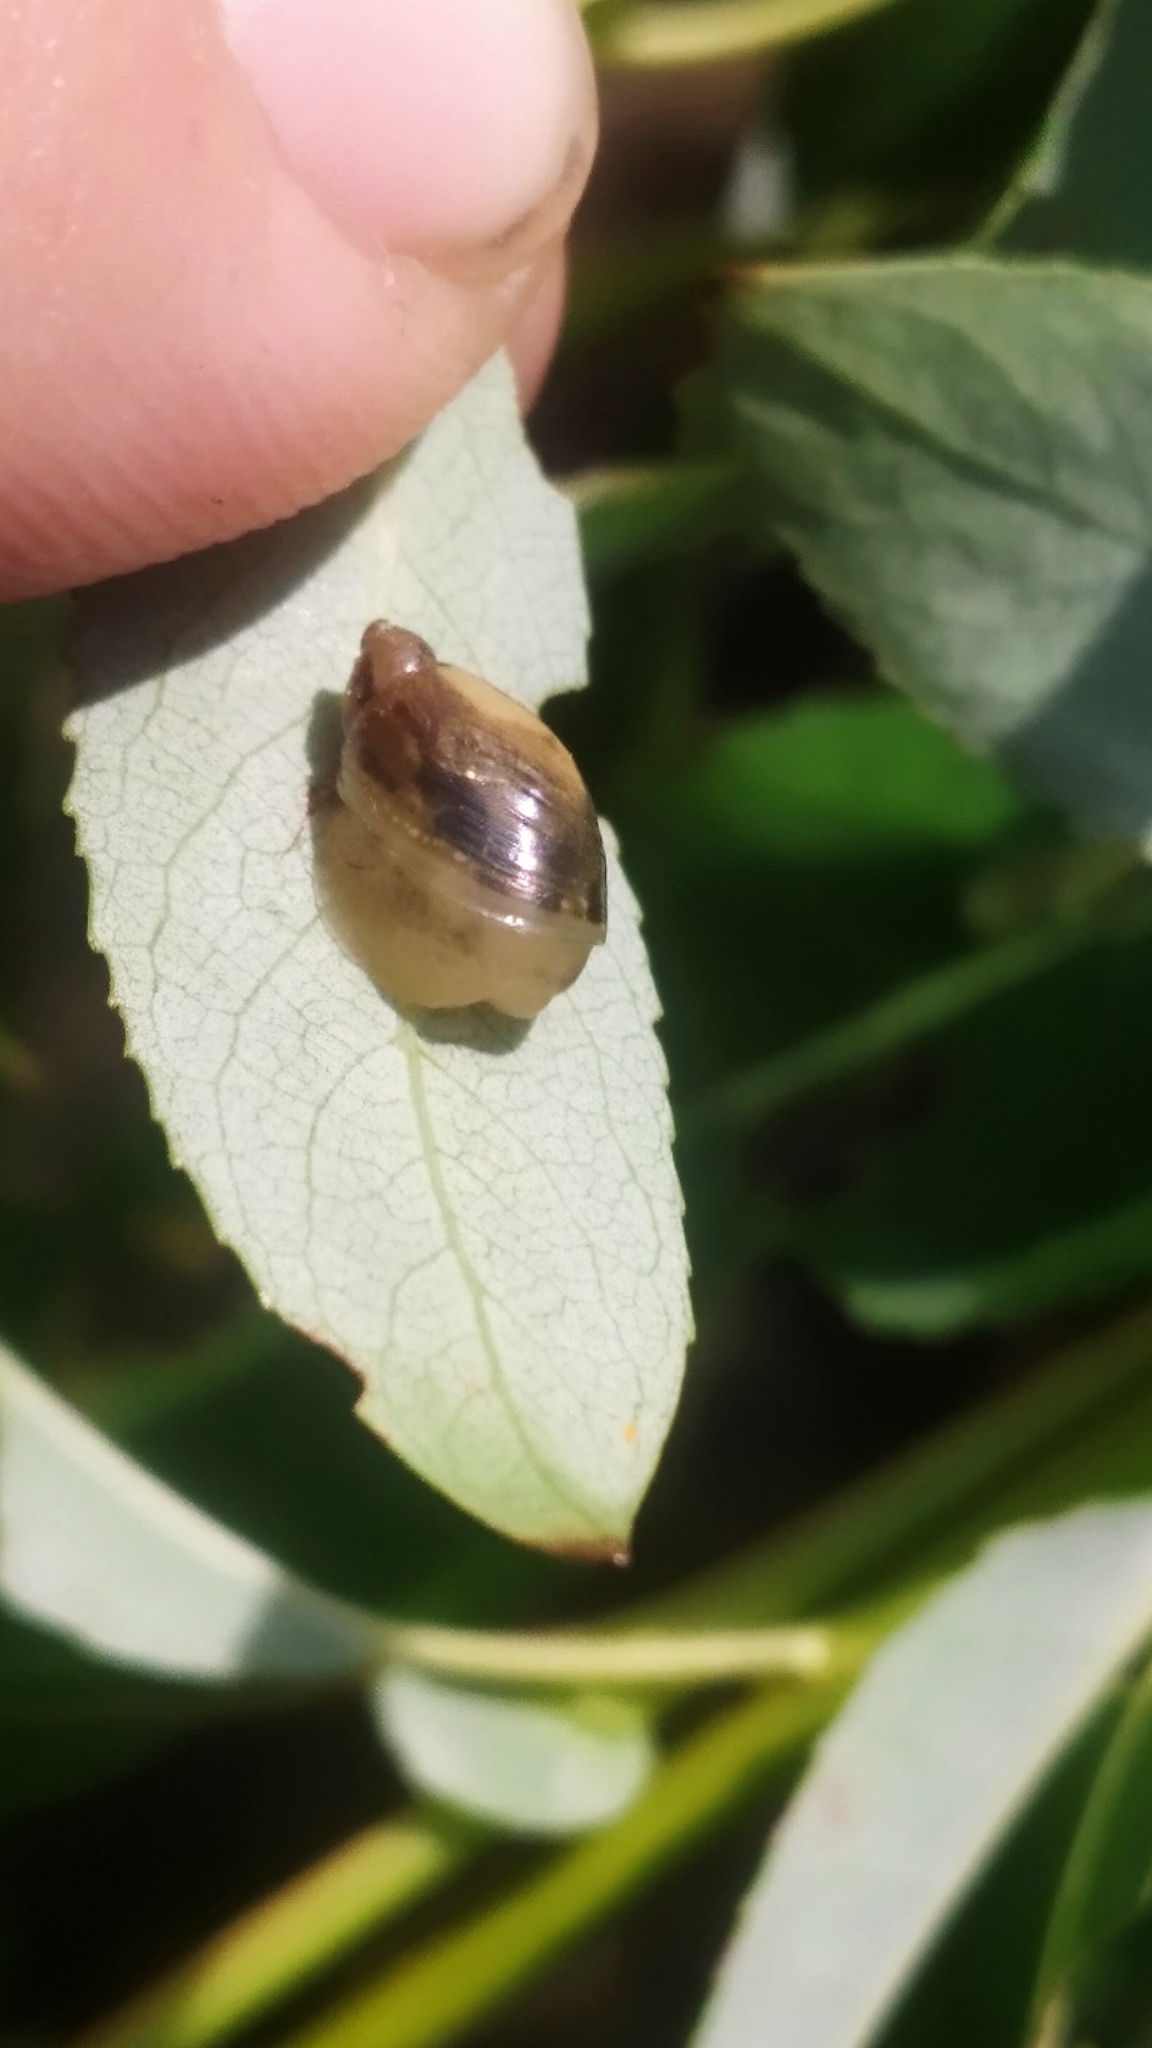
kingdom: Animalia
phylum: Mollusca
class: Gastropoda
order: Stylommatophora
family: Succineidae
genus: Succinea
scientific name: Succinea putris
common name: European ambersnail
